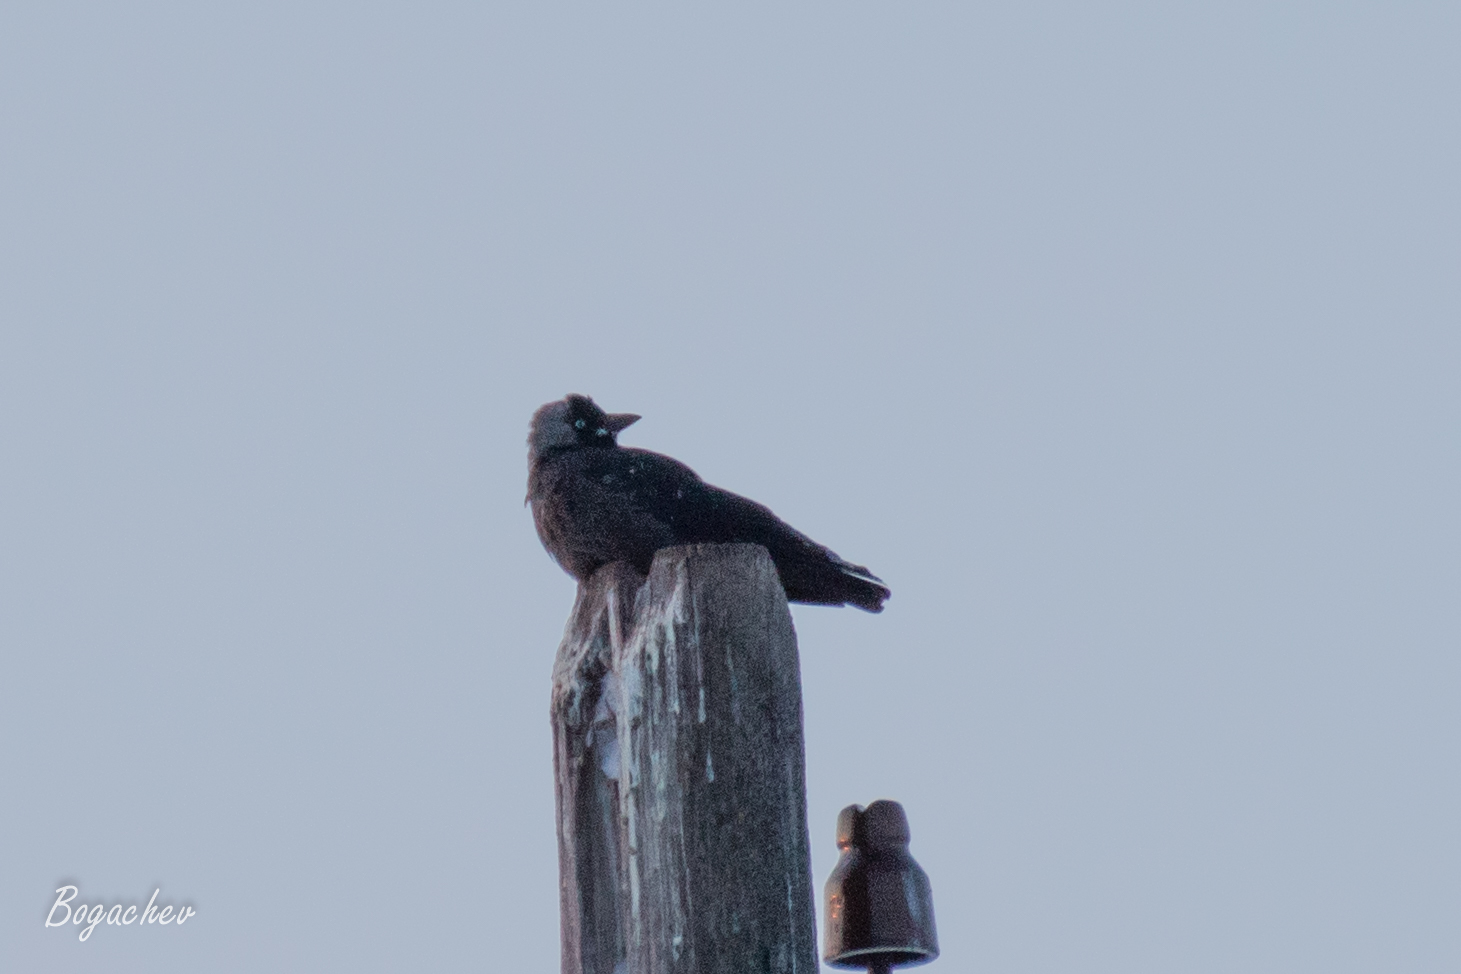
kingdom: Animalia
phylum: Chordata
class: Aves
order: Passeriformes
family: Corvidae
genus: Coloeus
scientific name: Coloeus monedula
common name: Western jackdaw
